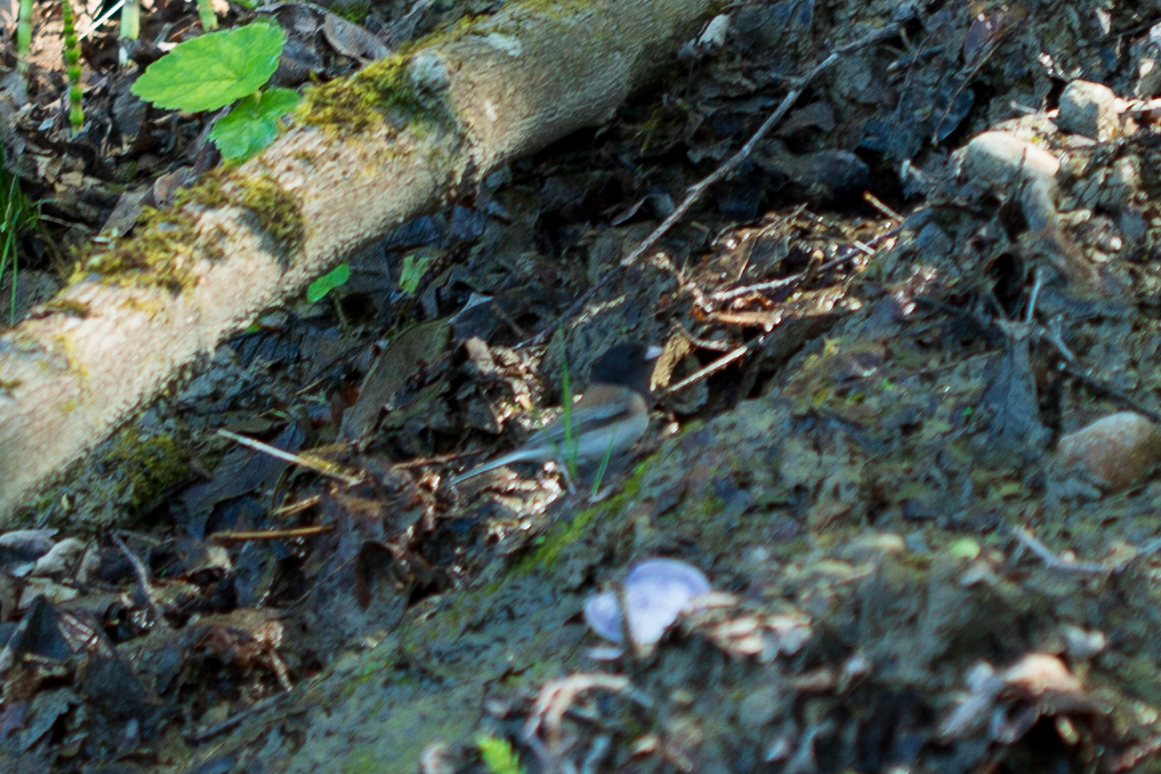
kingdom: Animalia
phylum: Chordata
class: Aves
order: Passeriformes
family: Passerellidae
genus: Junco
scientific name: Junco hyemalis
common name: Dark-eyed junco
